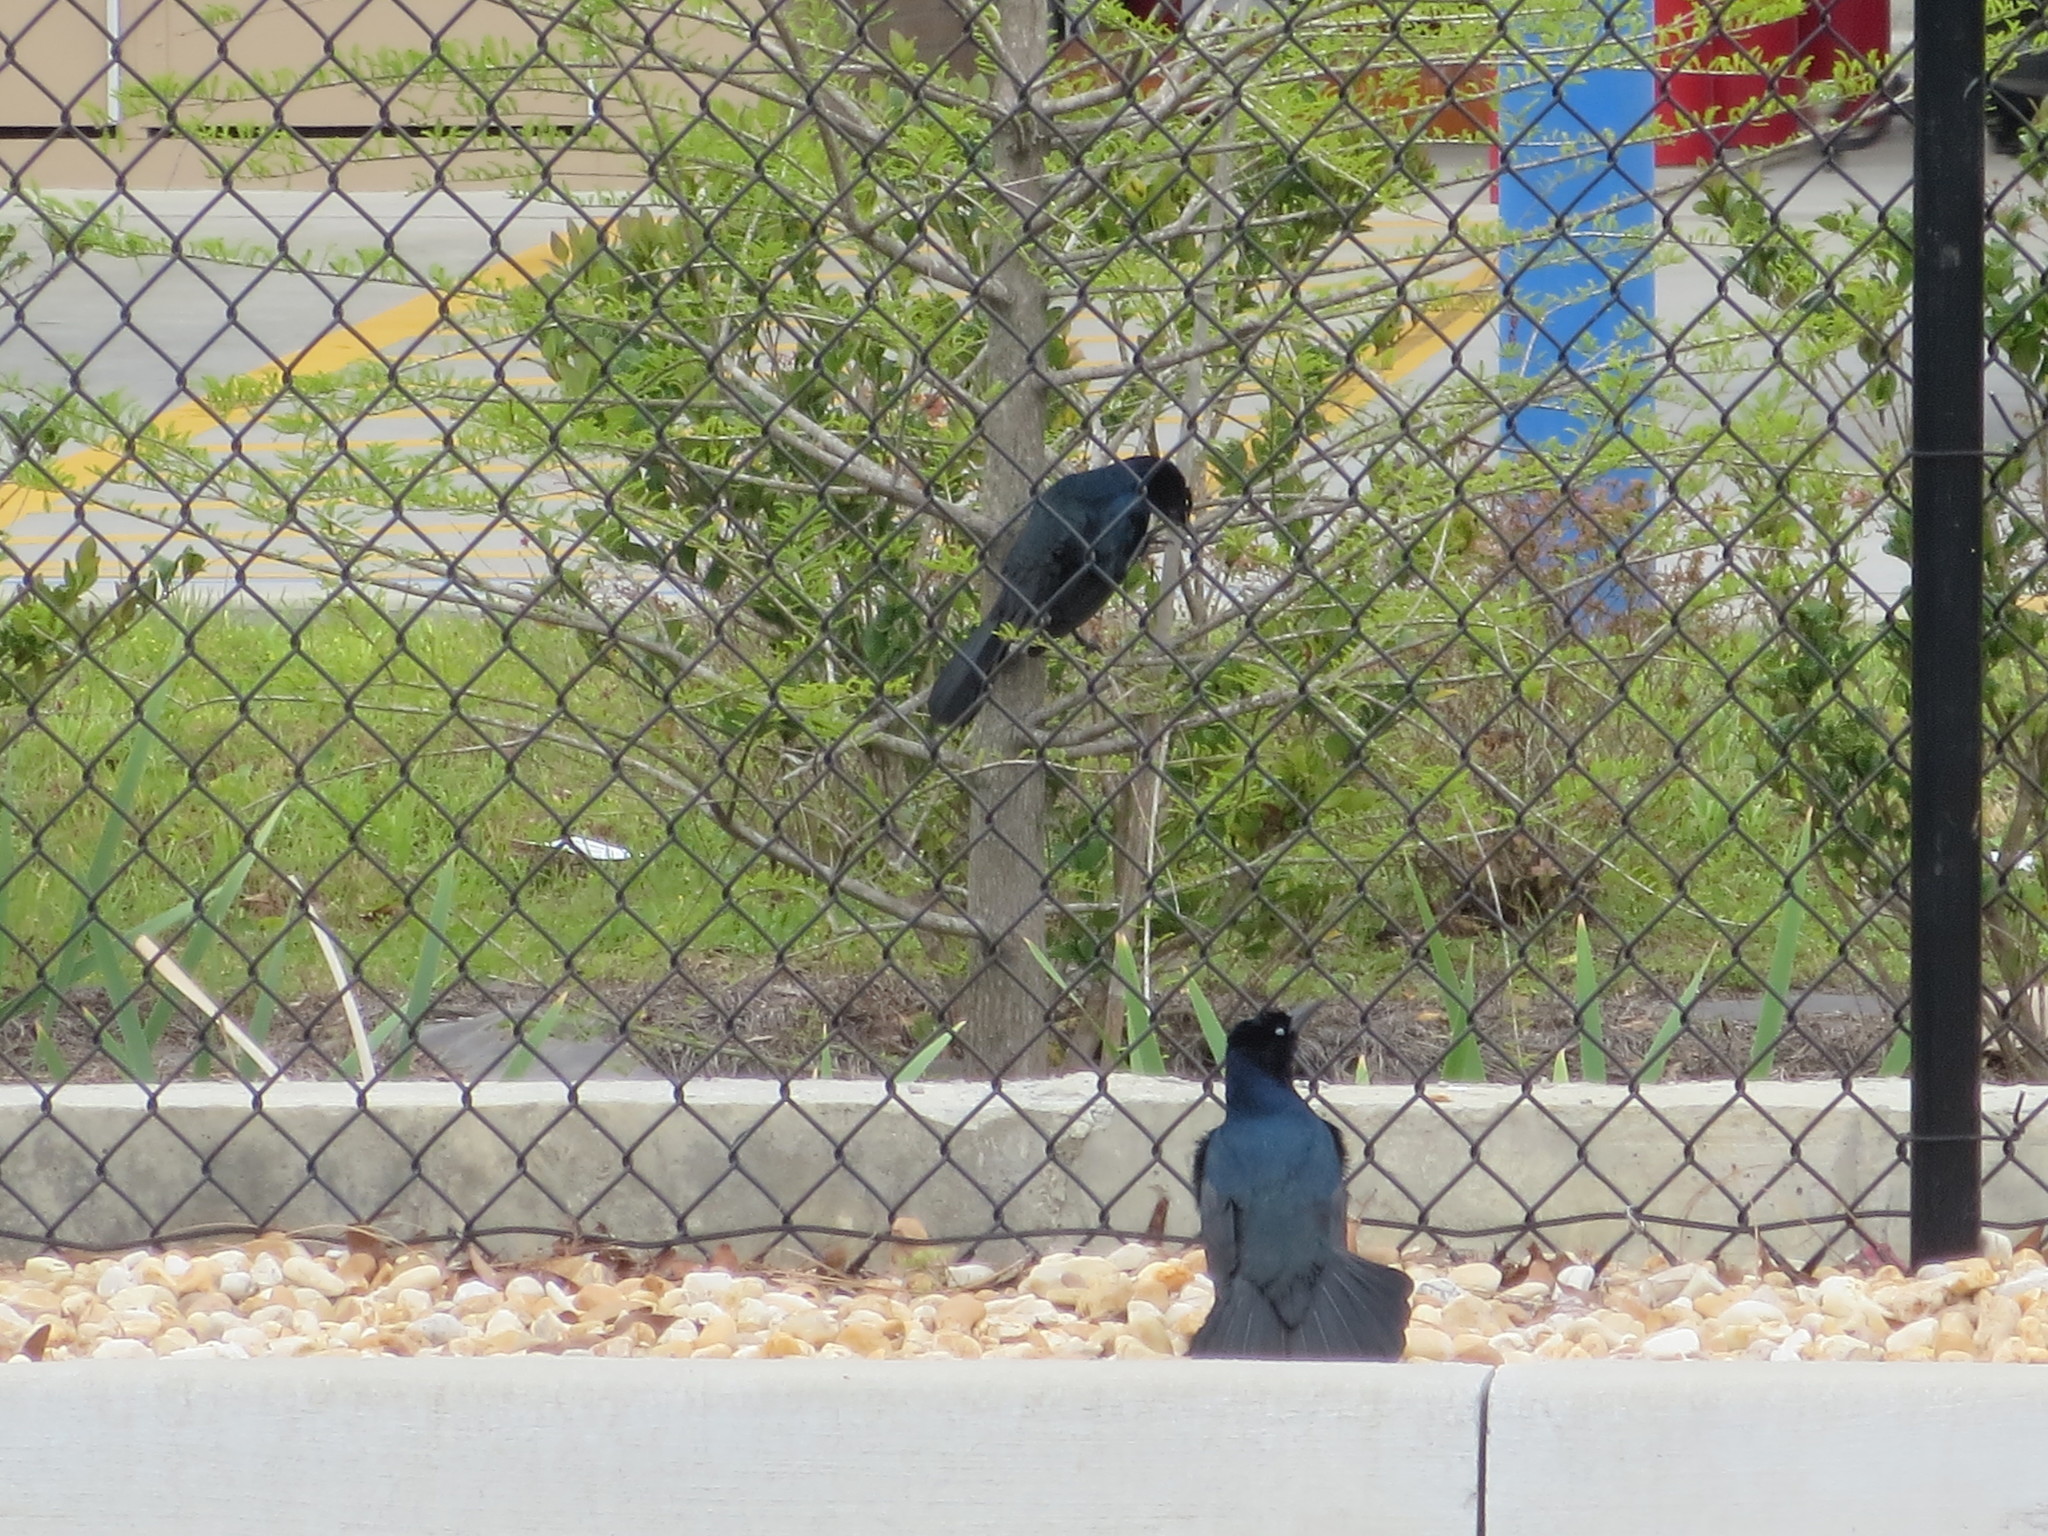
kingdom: Animalia
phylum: Chordata
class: Aves
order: Passeriformes
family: Icteridae
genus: Quiscalus
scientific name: Quiscalus major
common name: Boat-tailed grackle
